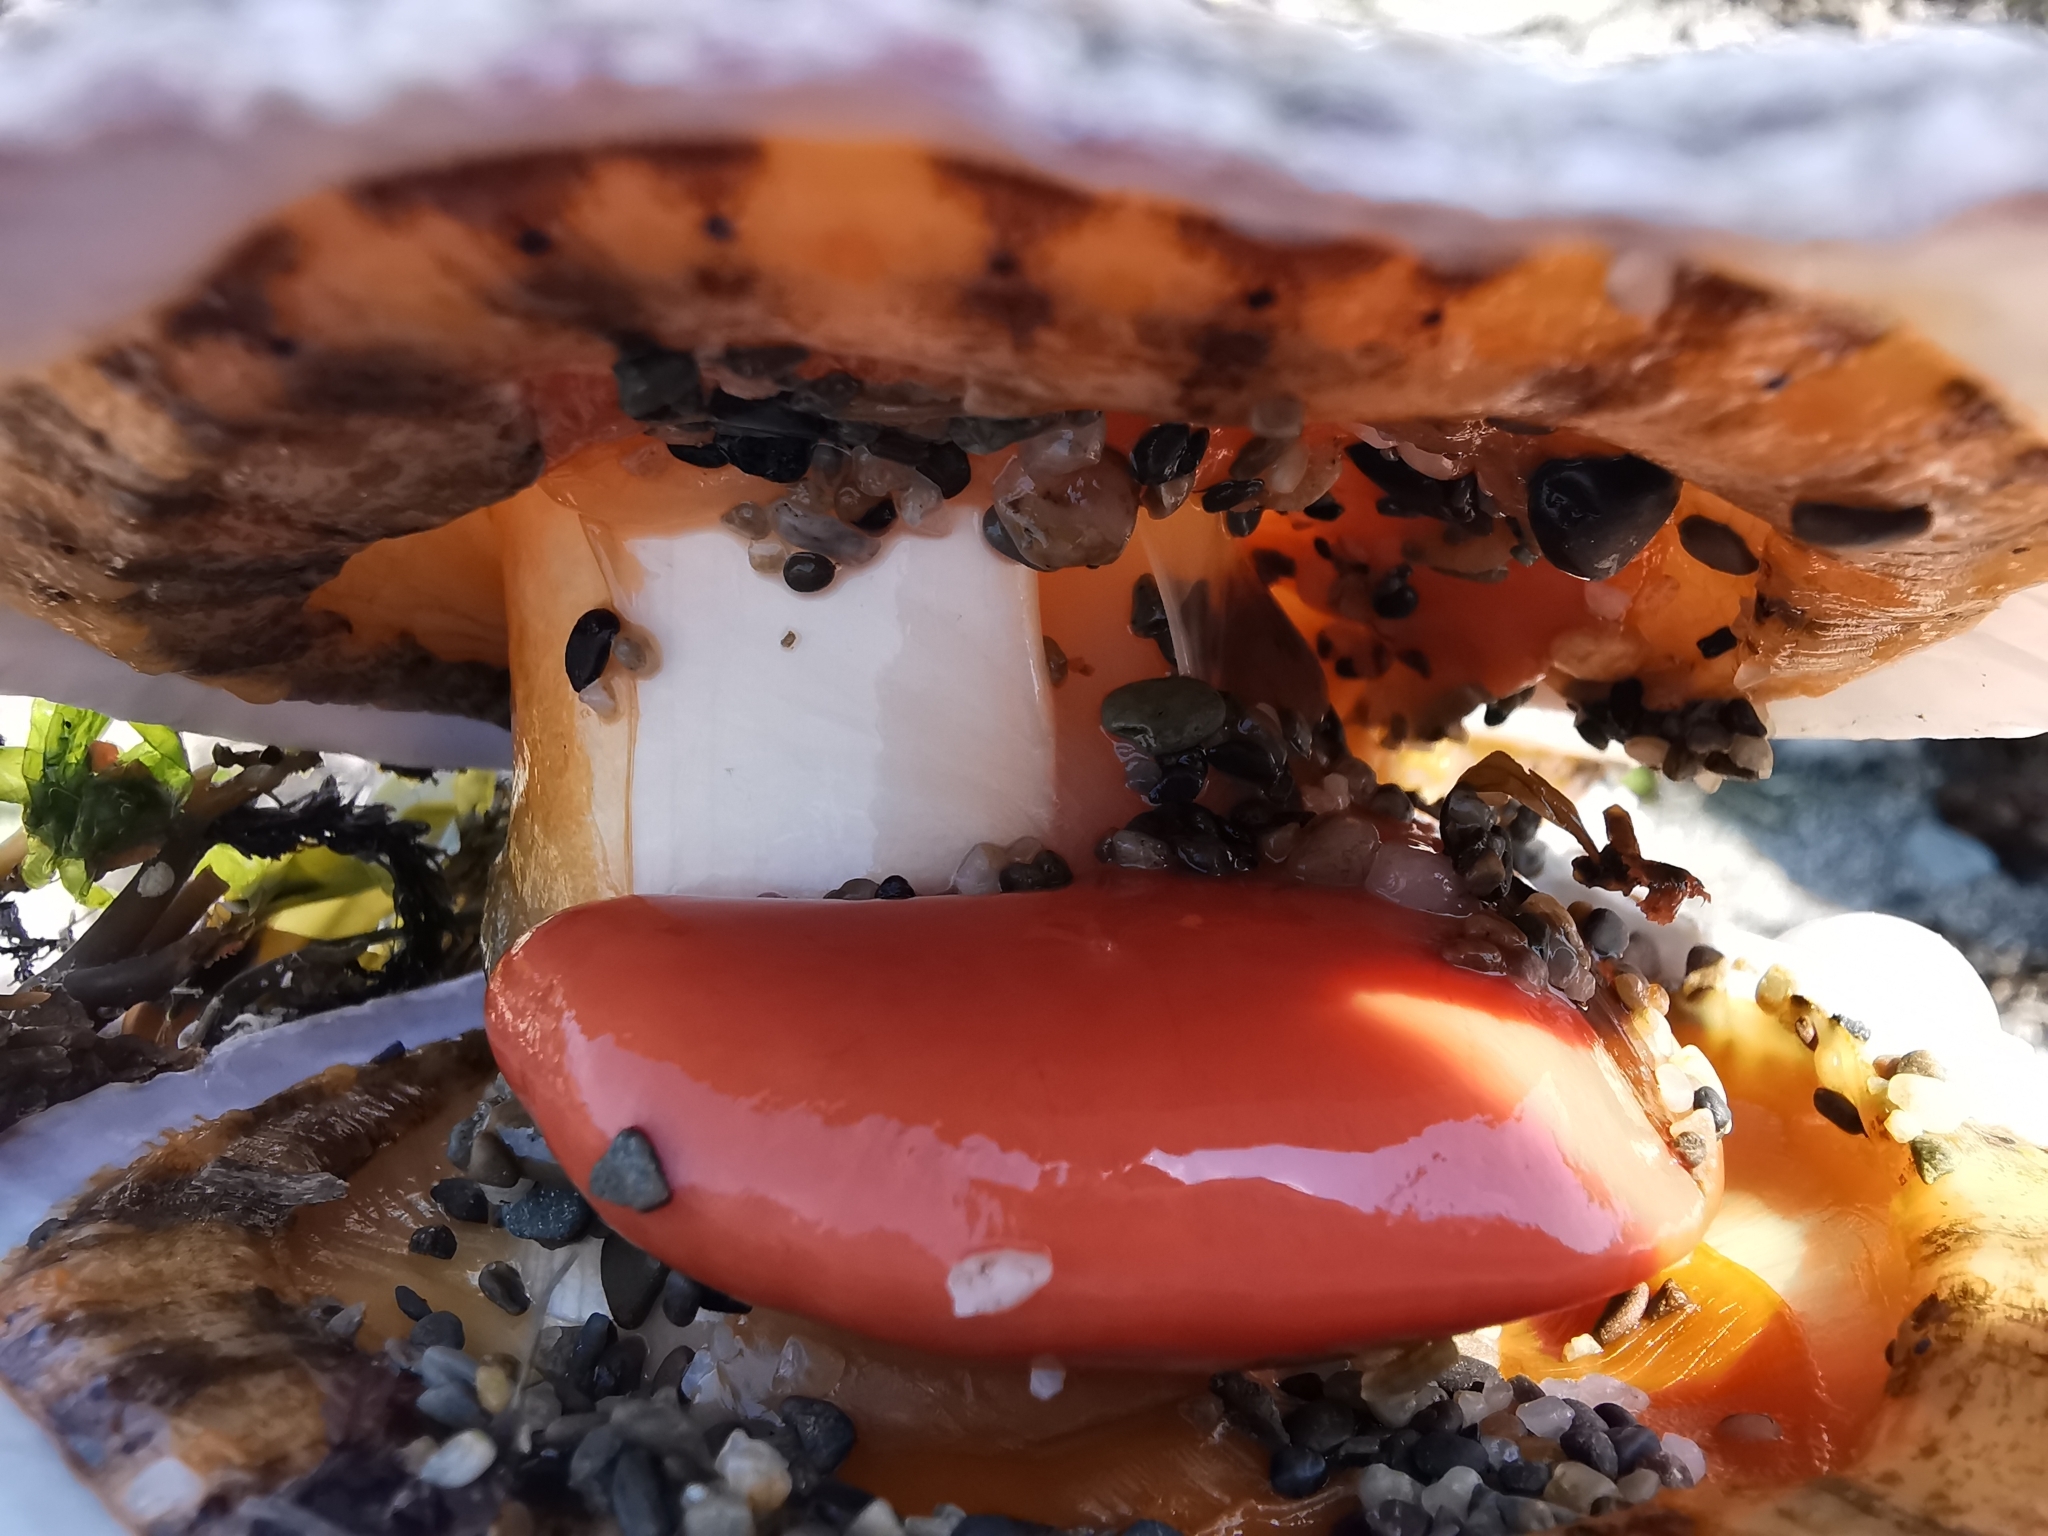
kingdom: Animalia
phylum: Mollusca
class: Bivalvia
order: Pectinida
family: Pectinidae
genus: Swiftopecten
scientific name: Swiftopecten swiftii
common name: Swift's scallop
